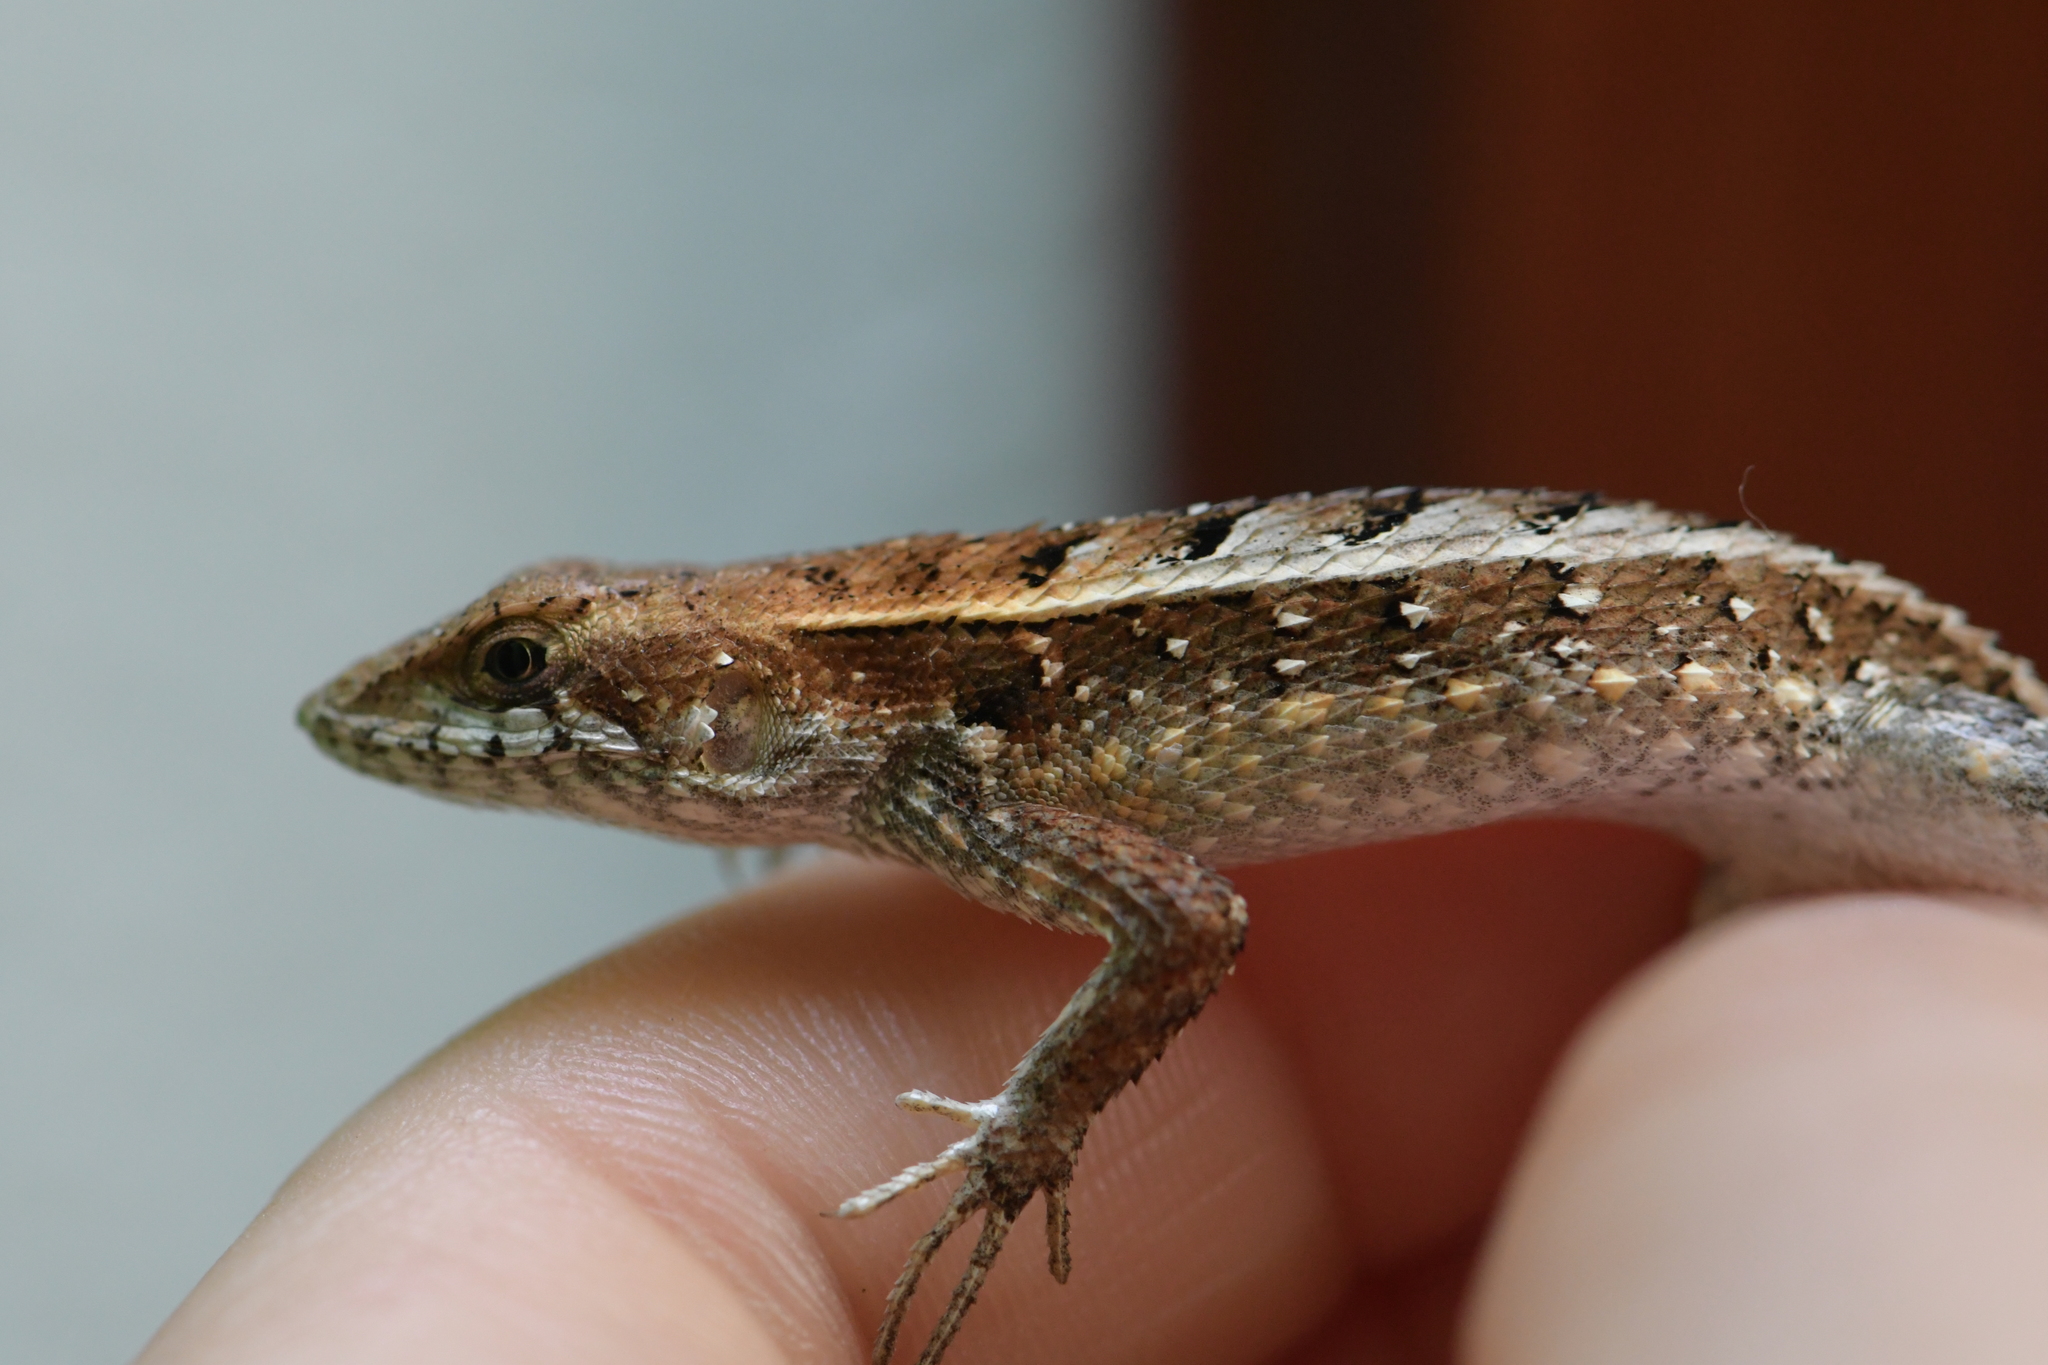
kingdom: Animalia
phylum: Chordata
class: Squamata
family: Phrynosomatidae
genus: Sceloporus
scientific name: Sceloporus siniferus
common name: Longtail spiny lizard
